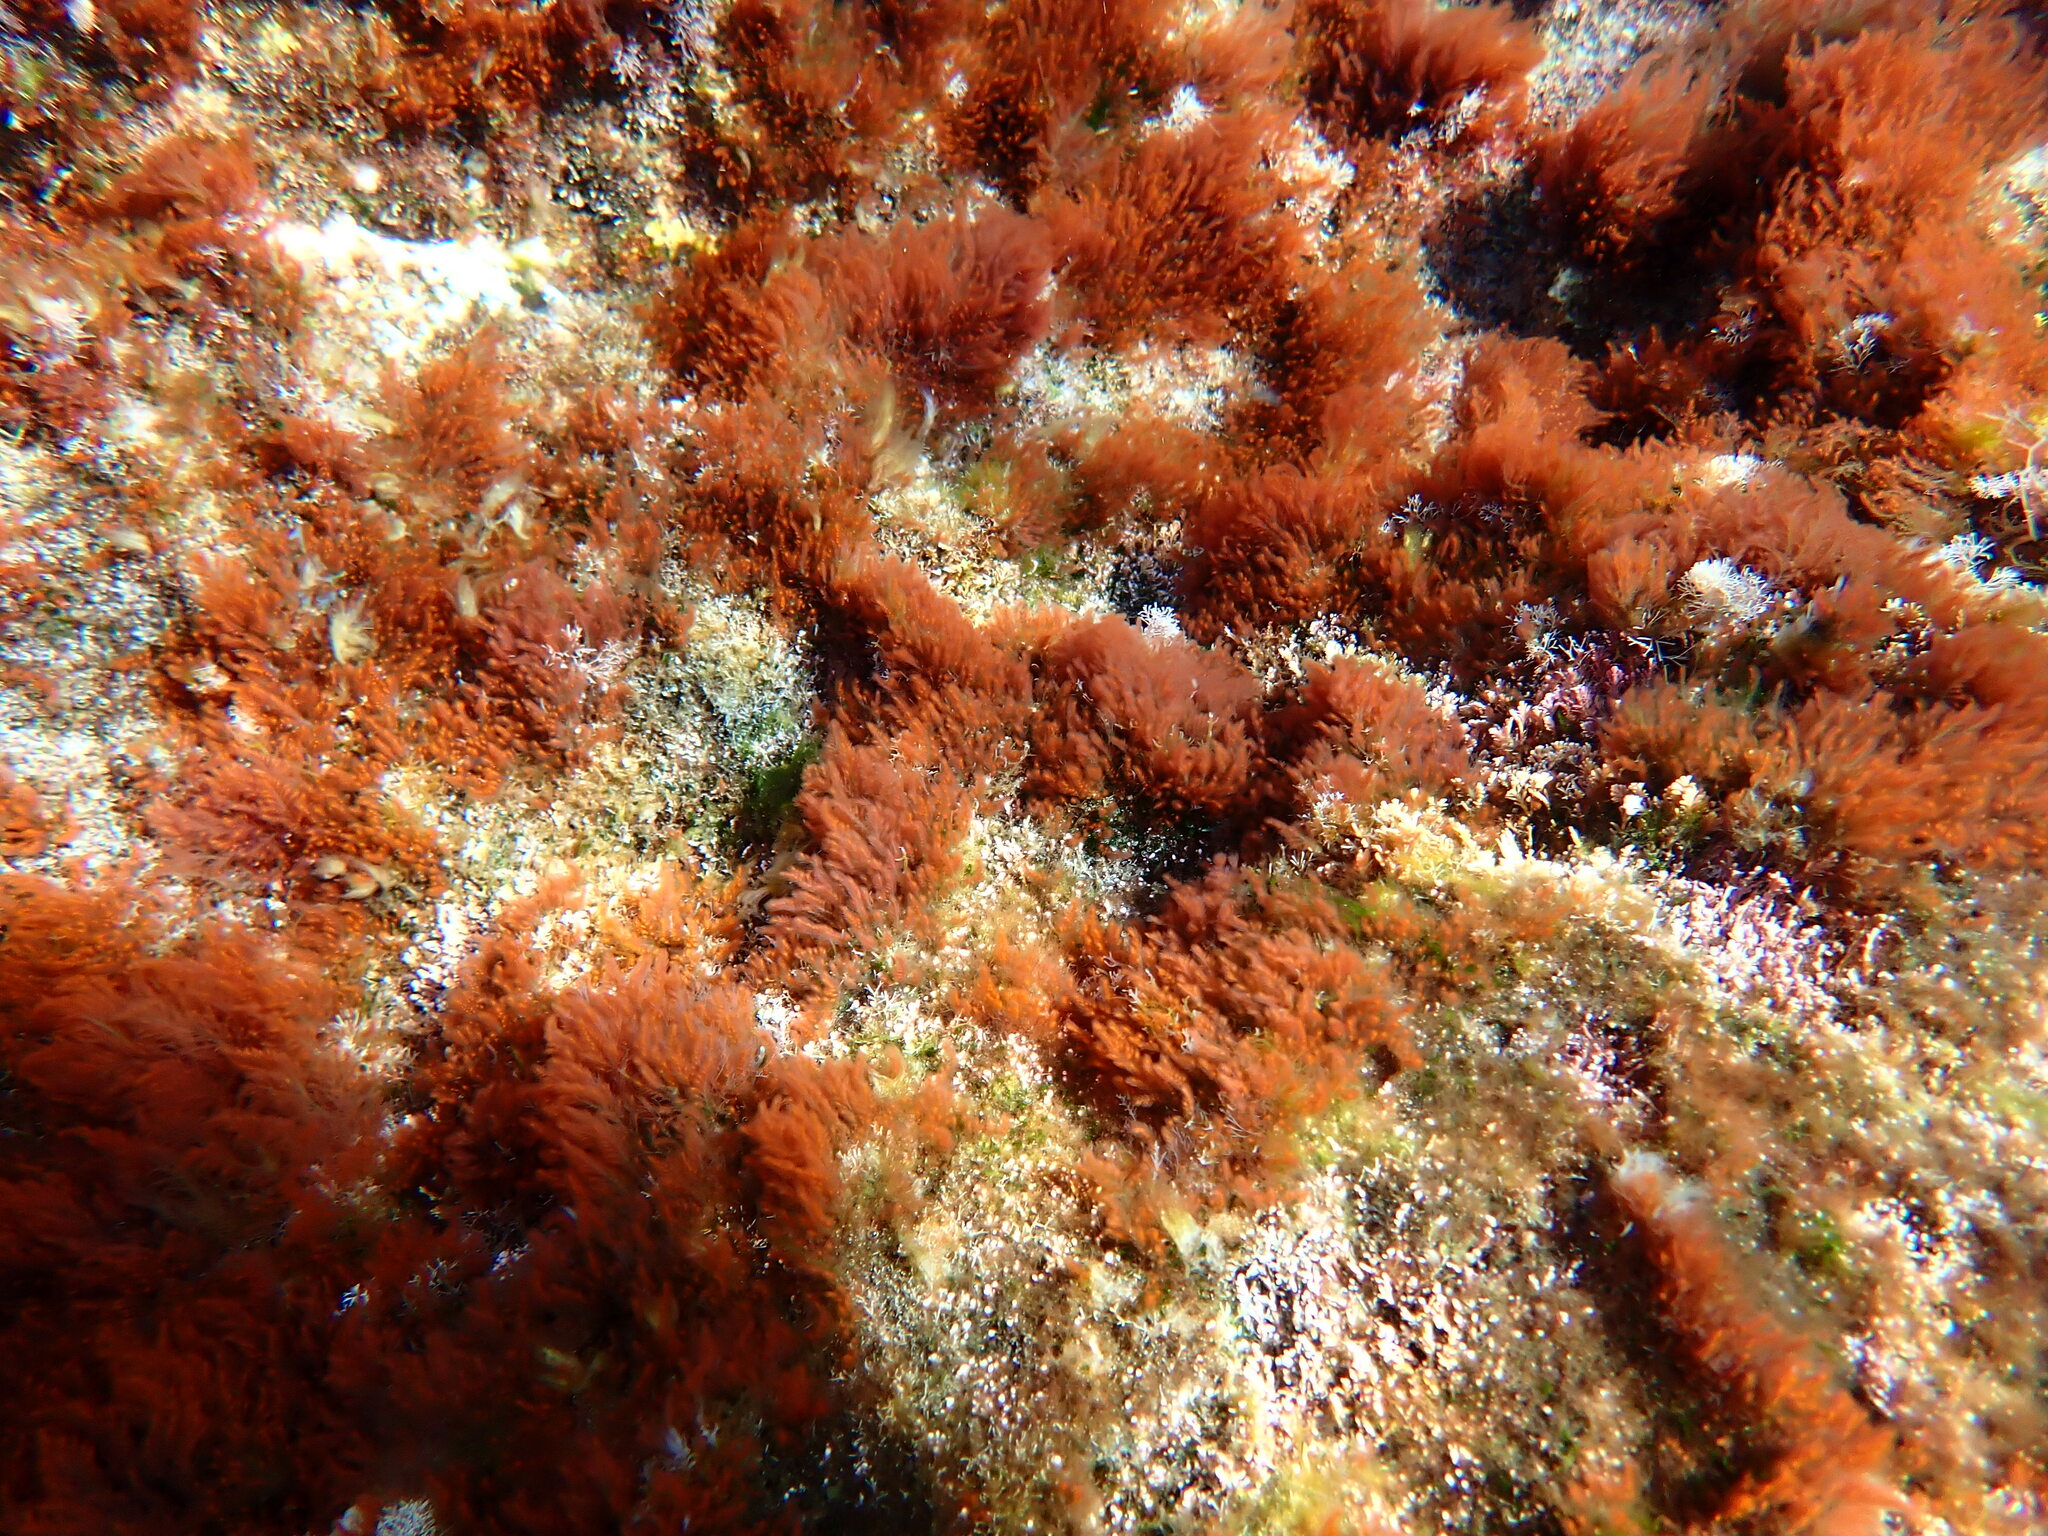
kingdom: Plantae
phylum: Rhodophyta
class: Florideophyceae
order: Ceramiales
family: Wrangeliaceae
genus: Wrangelia
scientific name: Wrangelia argus
